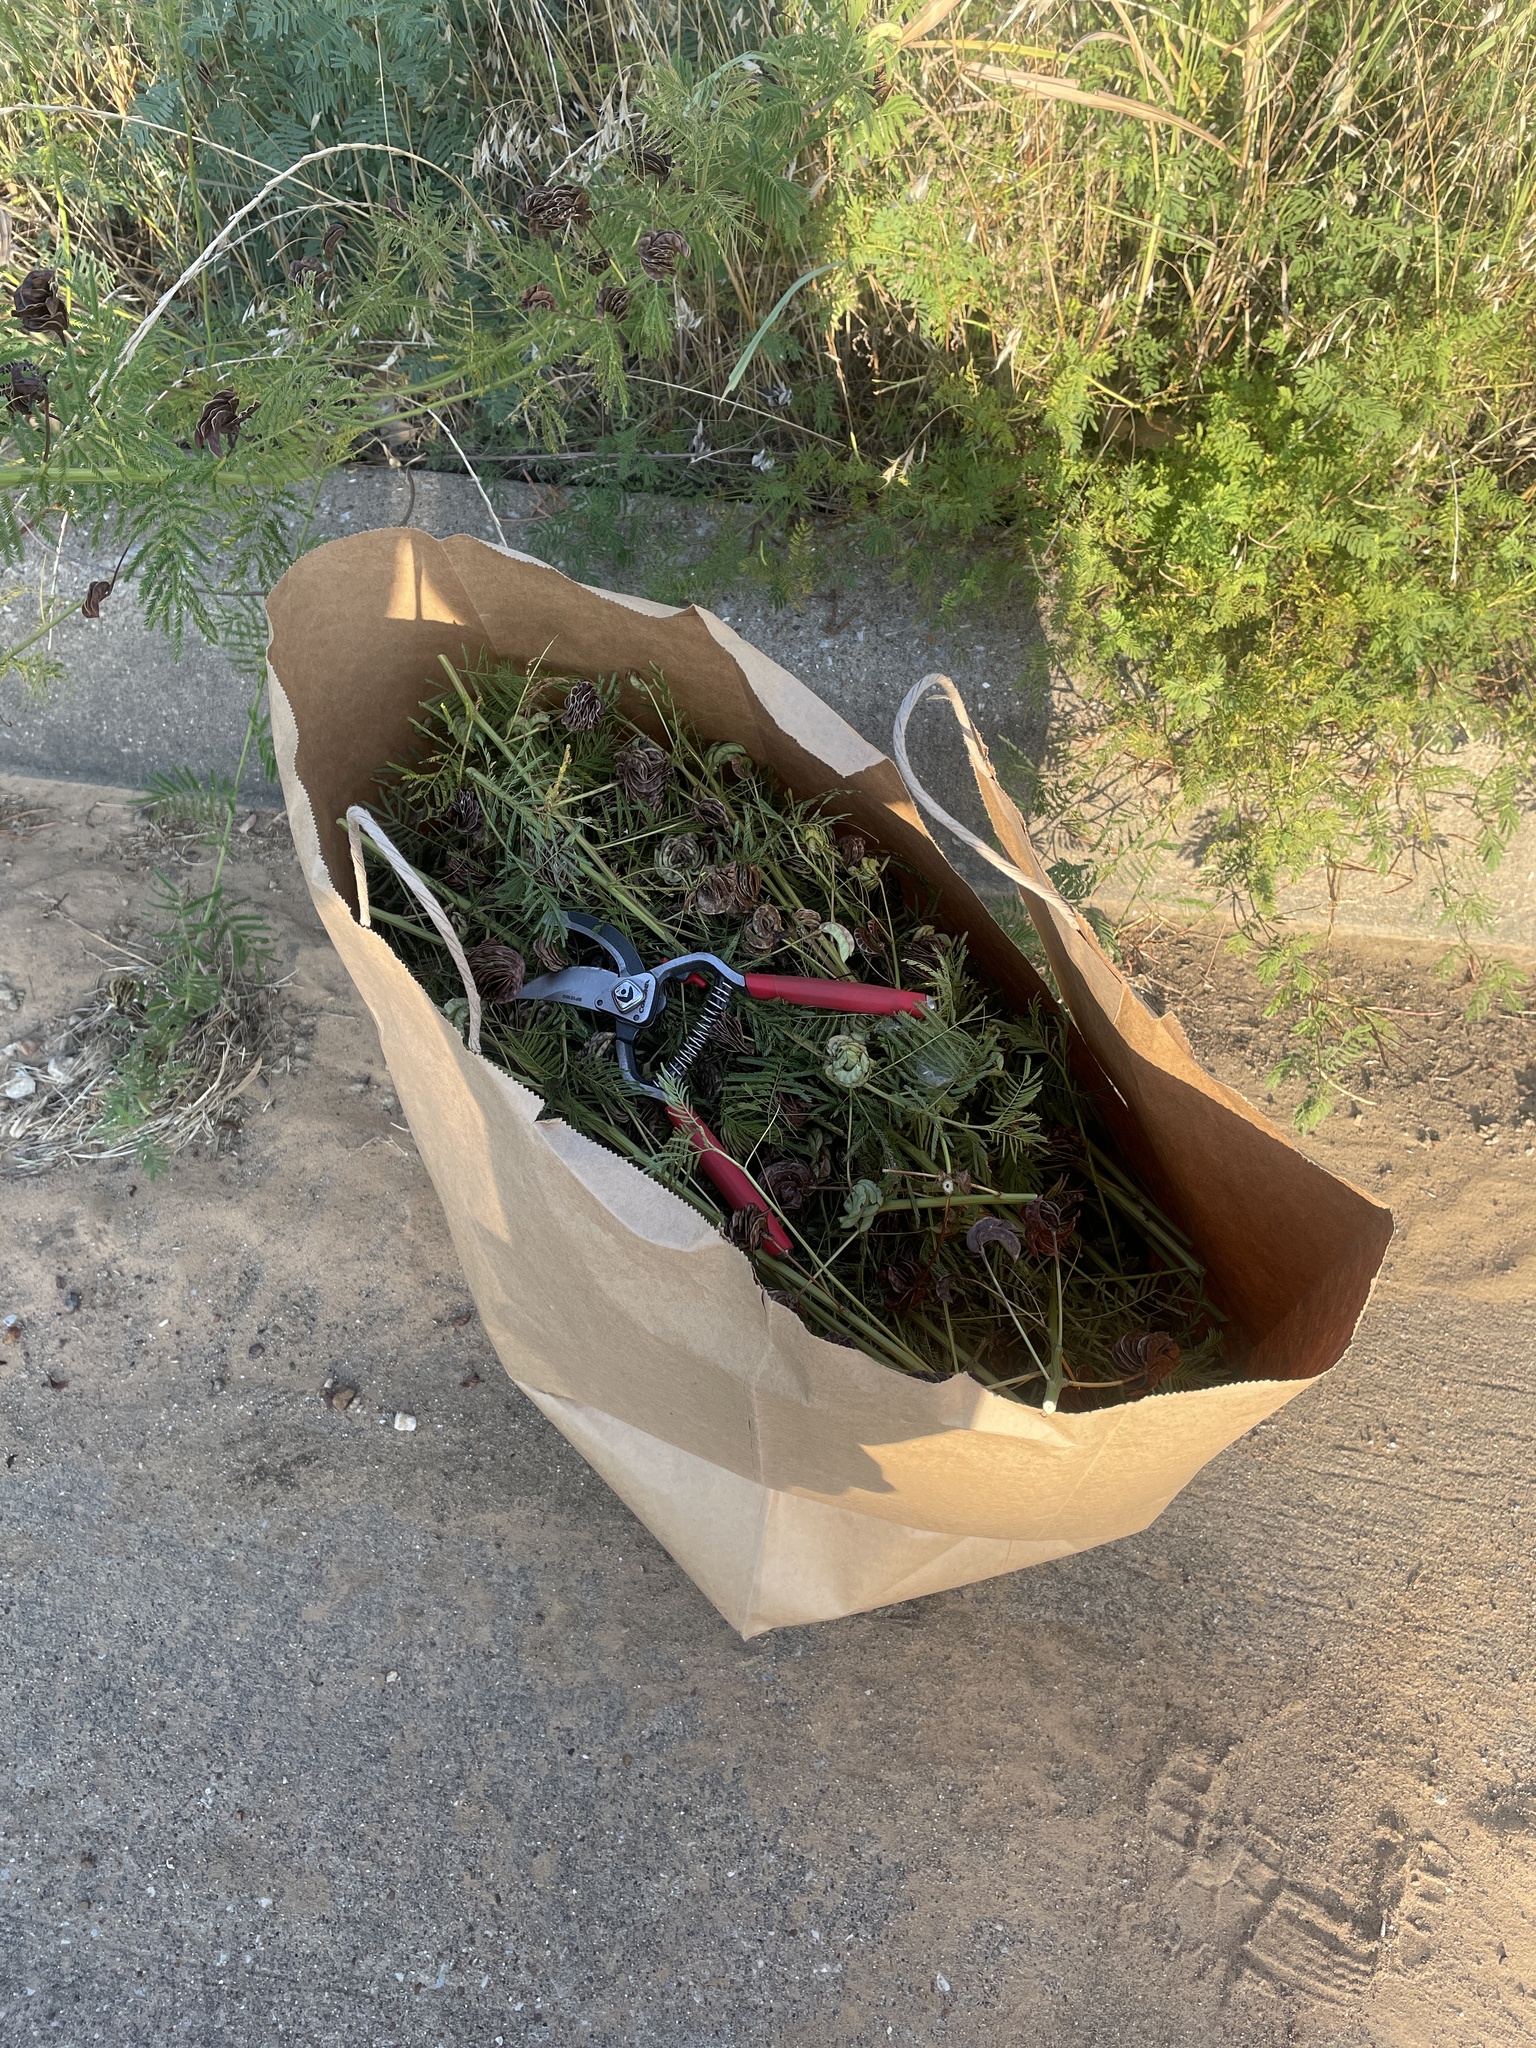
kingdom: Plantae
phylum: Tracheophyta
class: Magnoliopsida
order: Fabales
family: Fabaceae
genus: Desmanthus
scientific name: Desmanthus illinoensis
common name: Illinois bundle-flower
